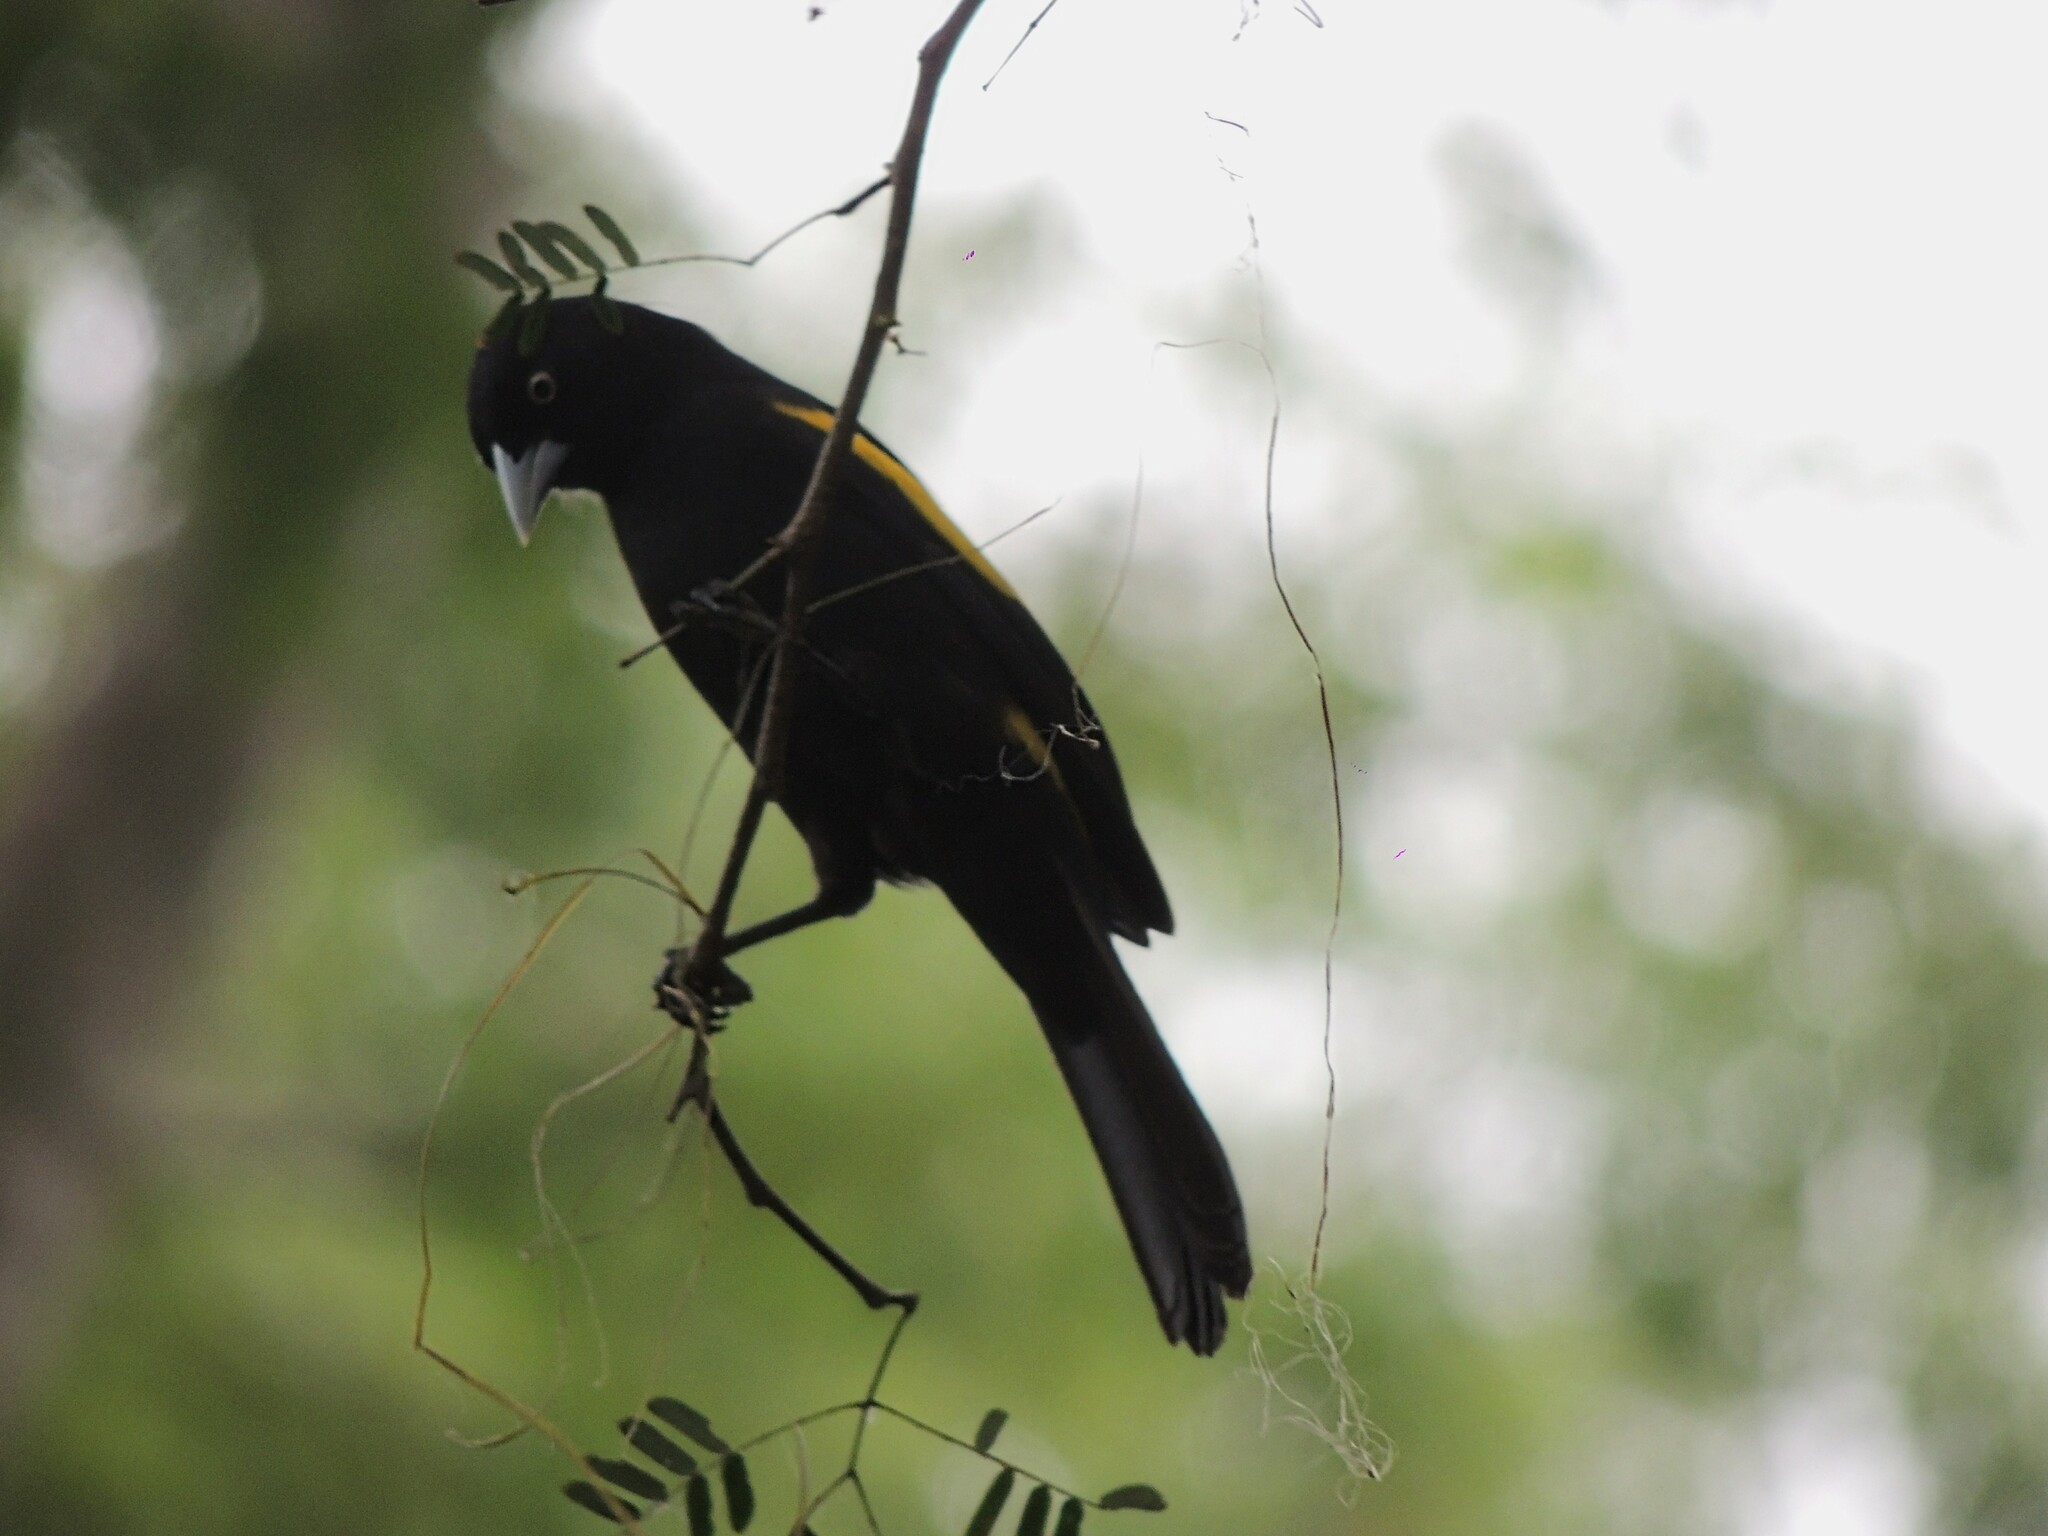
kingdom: Animalia
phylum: Chordata
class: Aves
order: Passeriformes
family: Icteridae
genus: Cacicus
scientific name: Cacicus chrysopterus
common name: Golden-winged cacique
